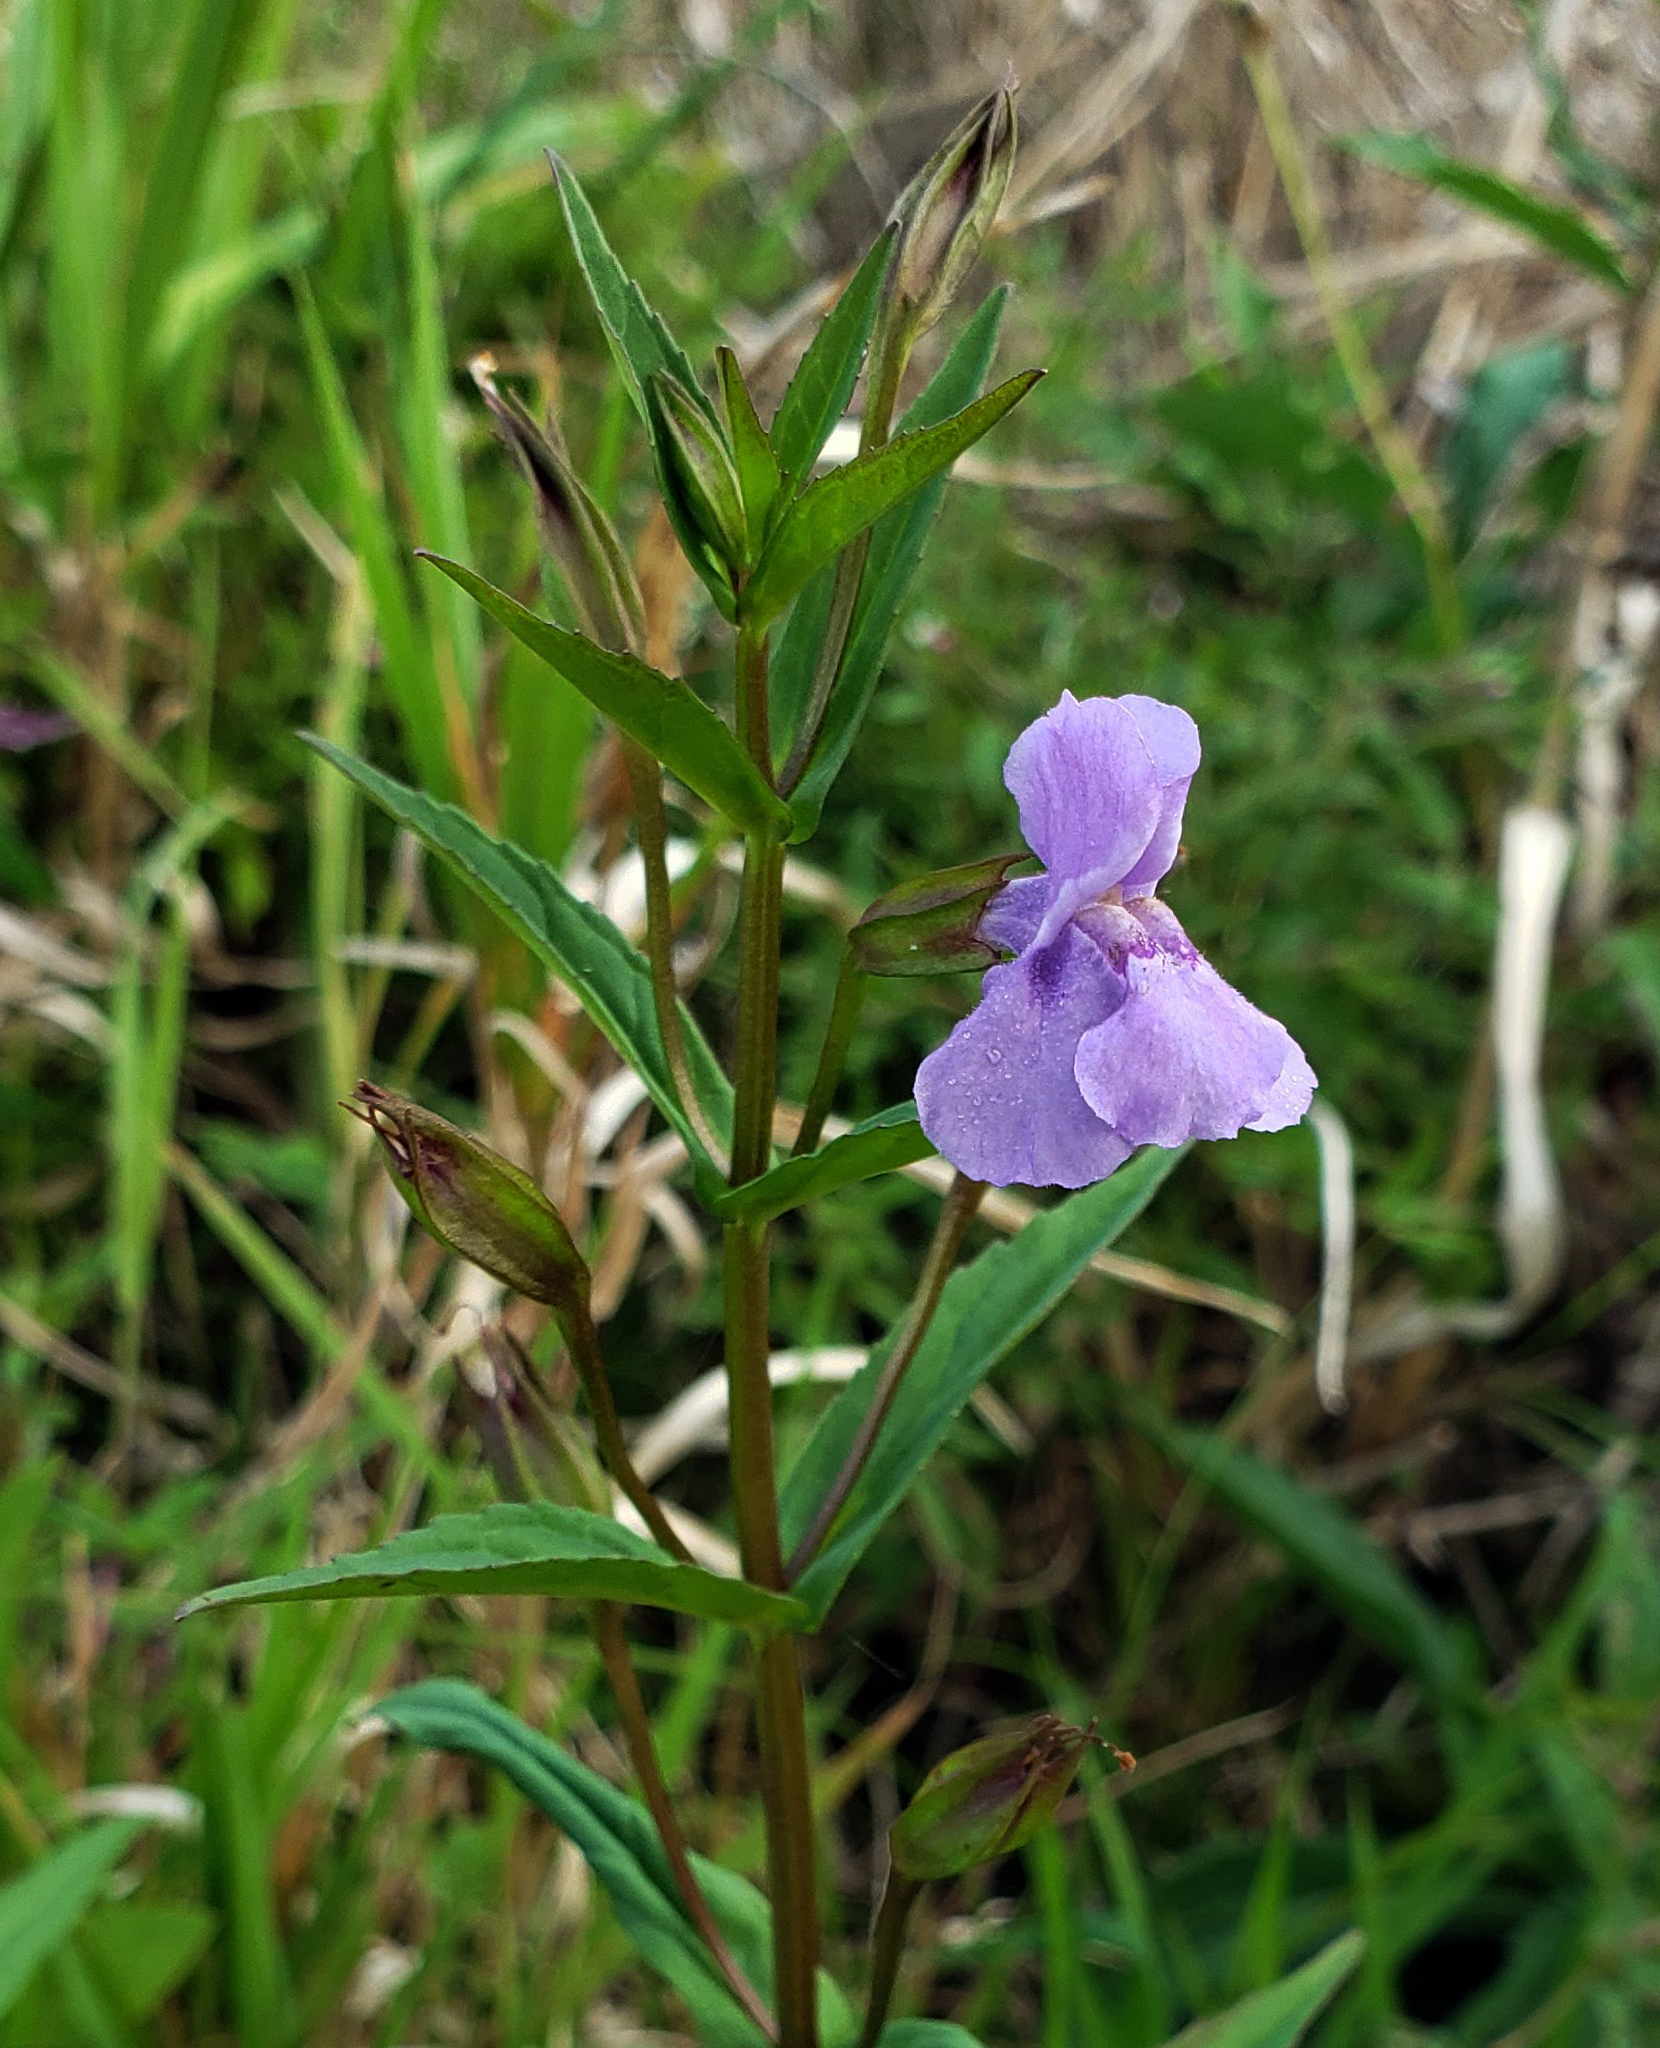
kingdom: Plantae
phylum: Tracheophyta
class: Magnoliopsida
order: Lamiales
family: Phrymaceae
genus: Mimulus
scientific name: Mimulus ringens
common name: Allegheny monkeyflower
